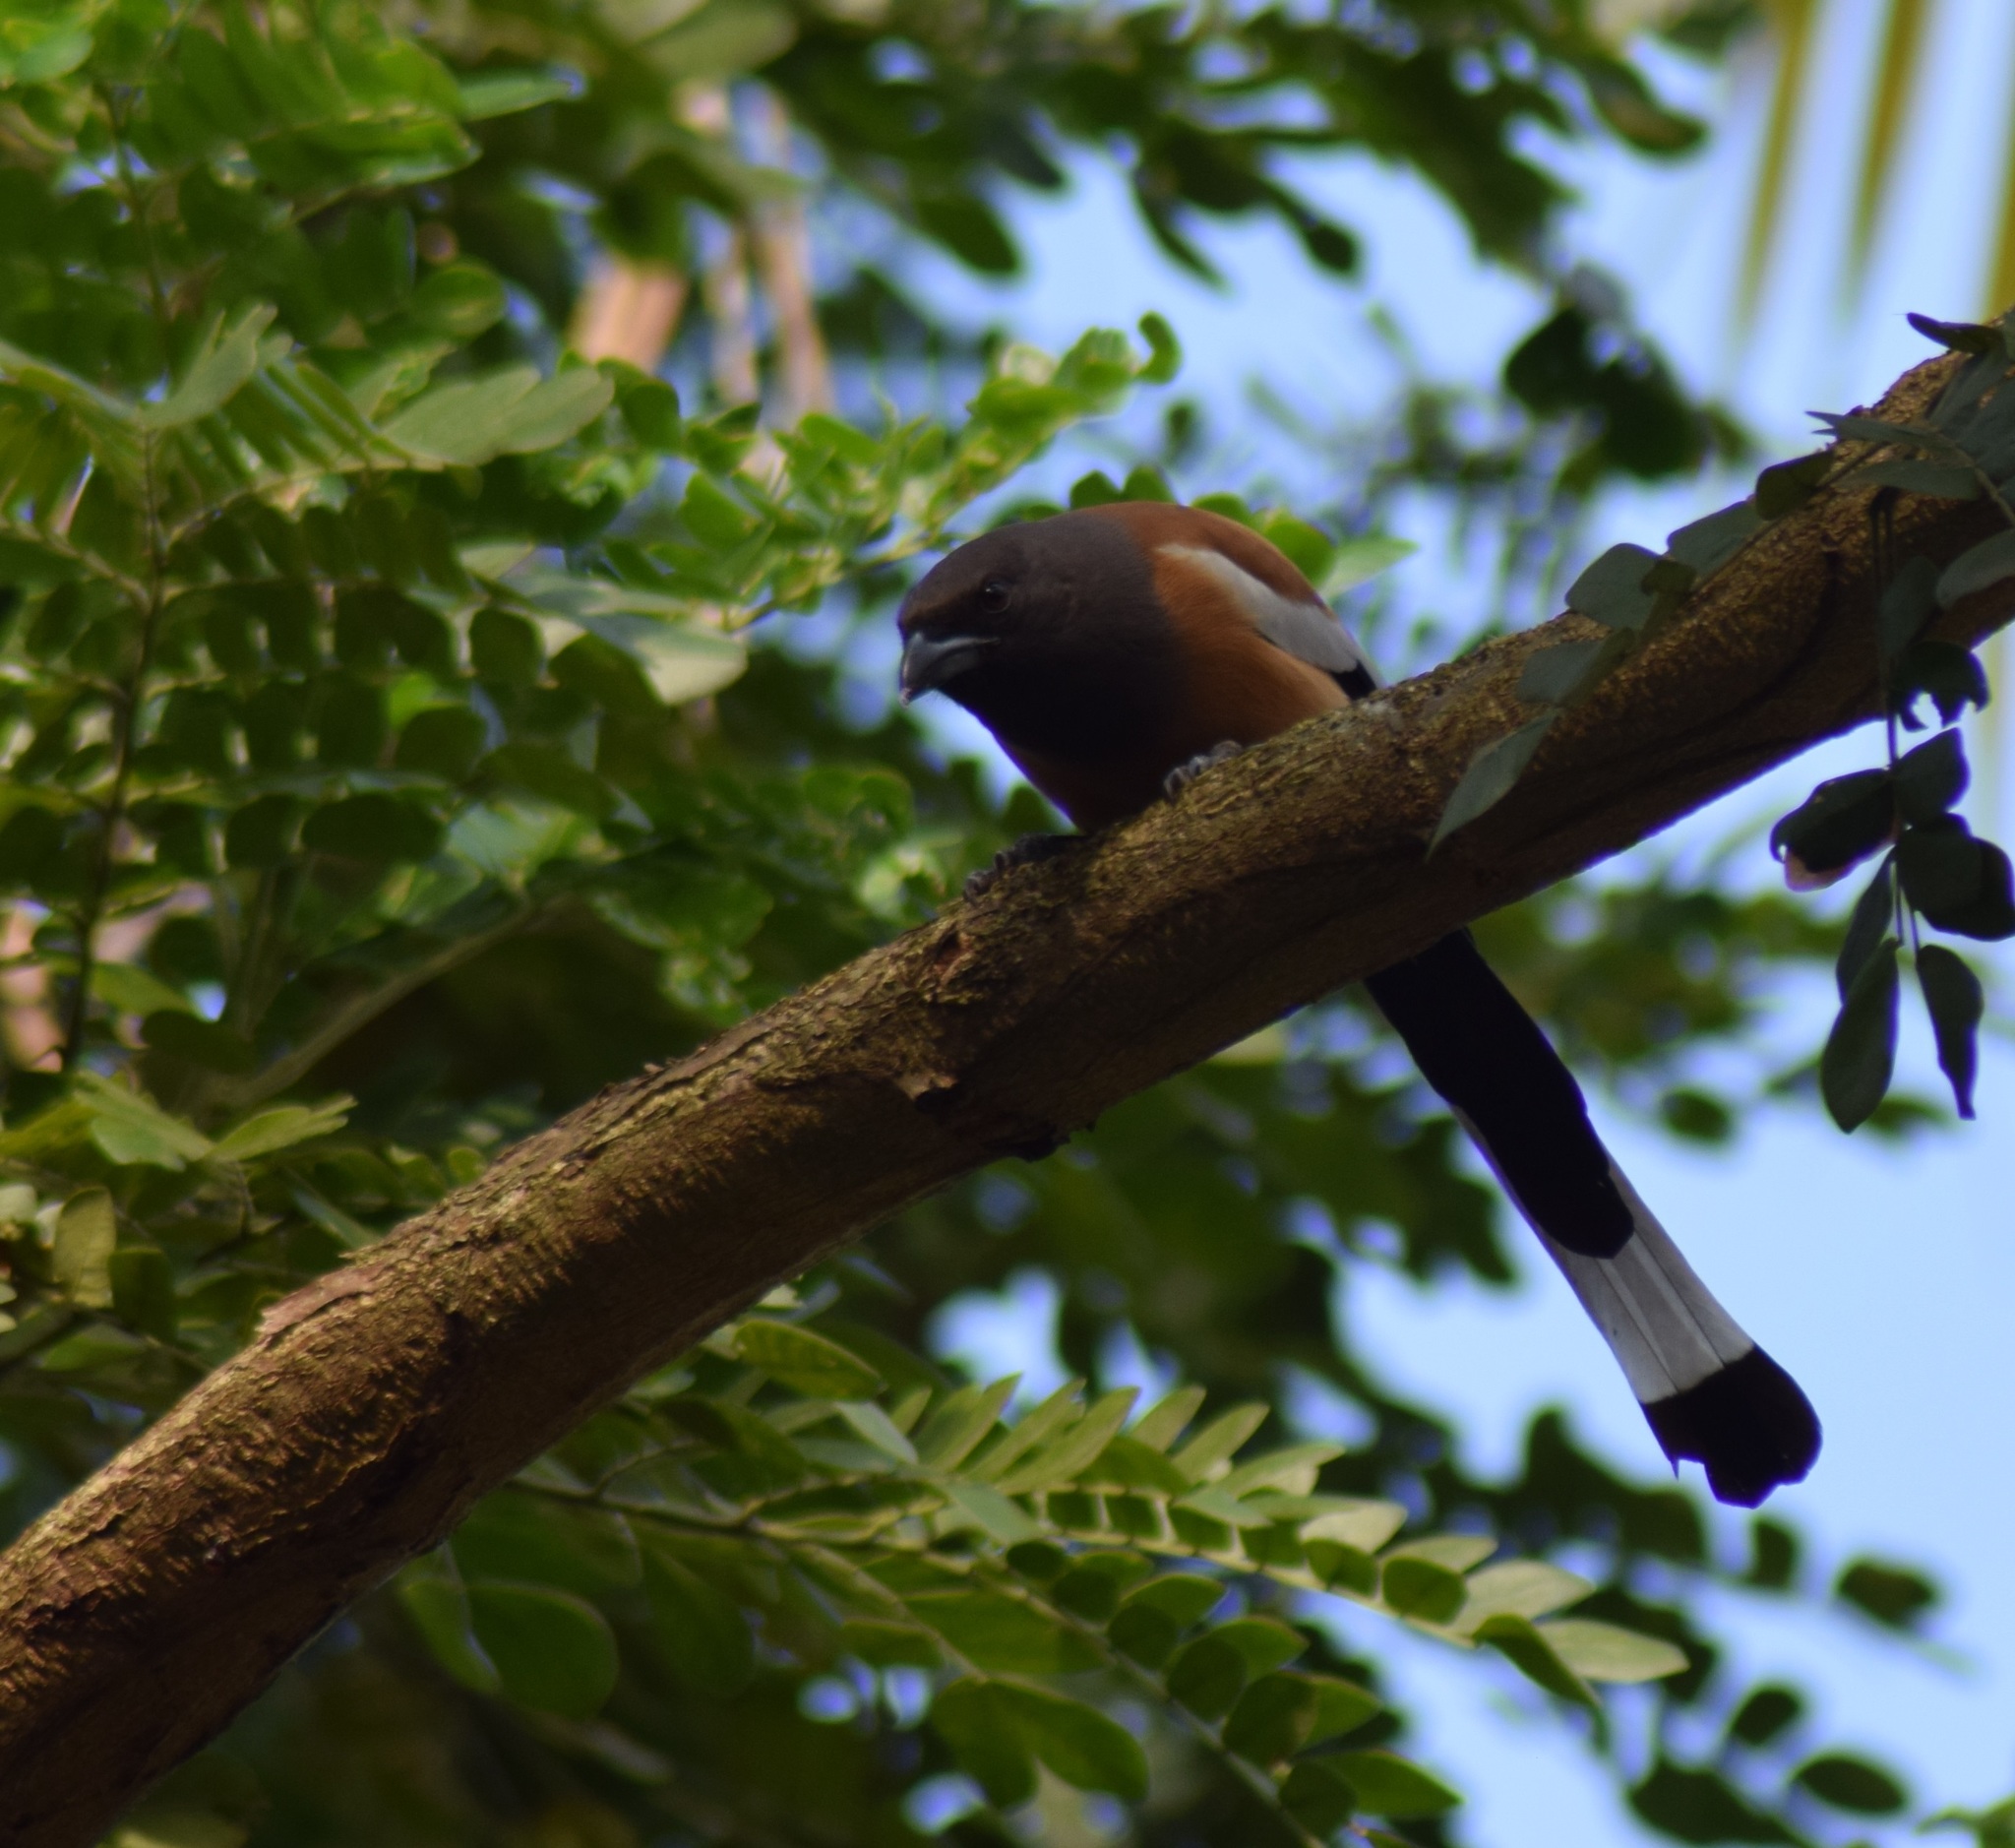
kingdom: Animalia
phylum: Chordata
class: Aves
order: Passeriformes
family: Corvidae
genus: Dendrocitta
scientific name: Dendrocitta vagabunda
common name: Rufous treepie
